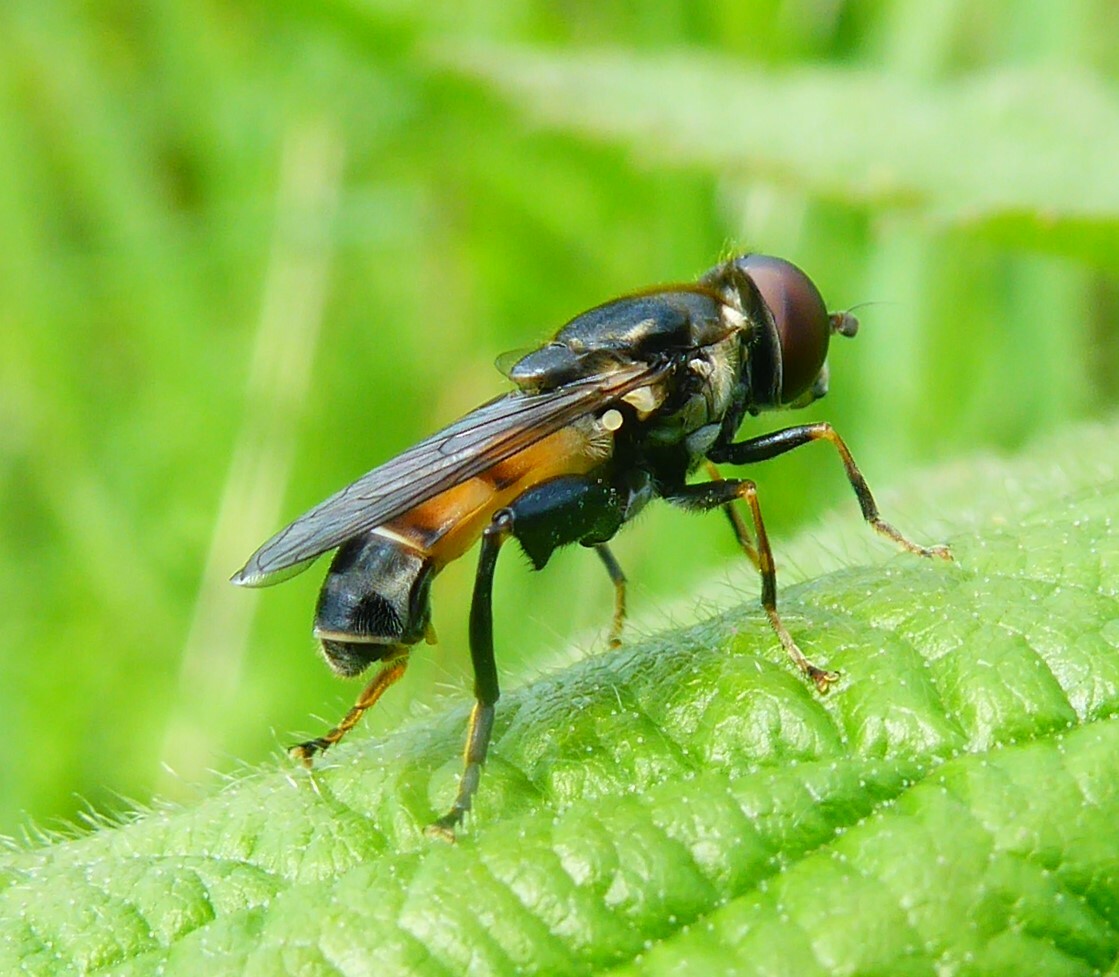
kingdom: Animalia
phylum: Arthropoda
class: Insecta
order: Diptera
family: Syrphidae
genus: Tropidia
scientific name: Tropidia scita
